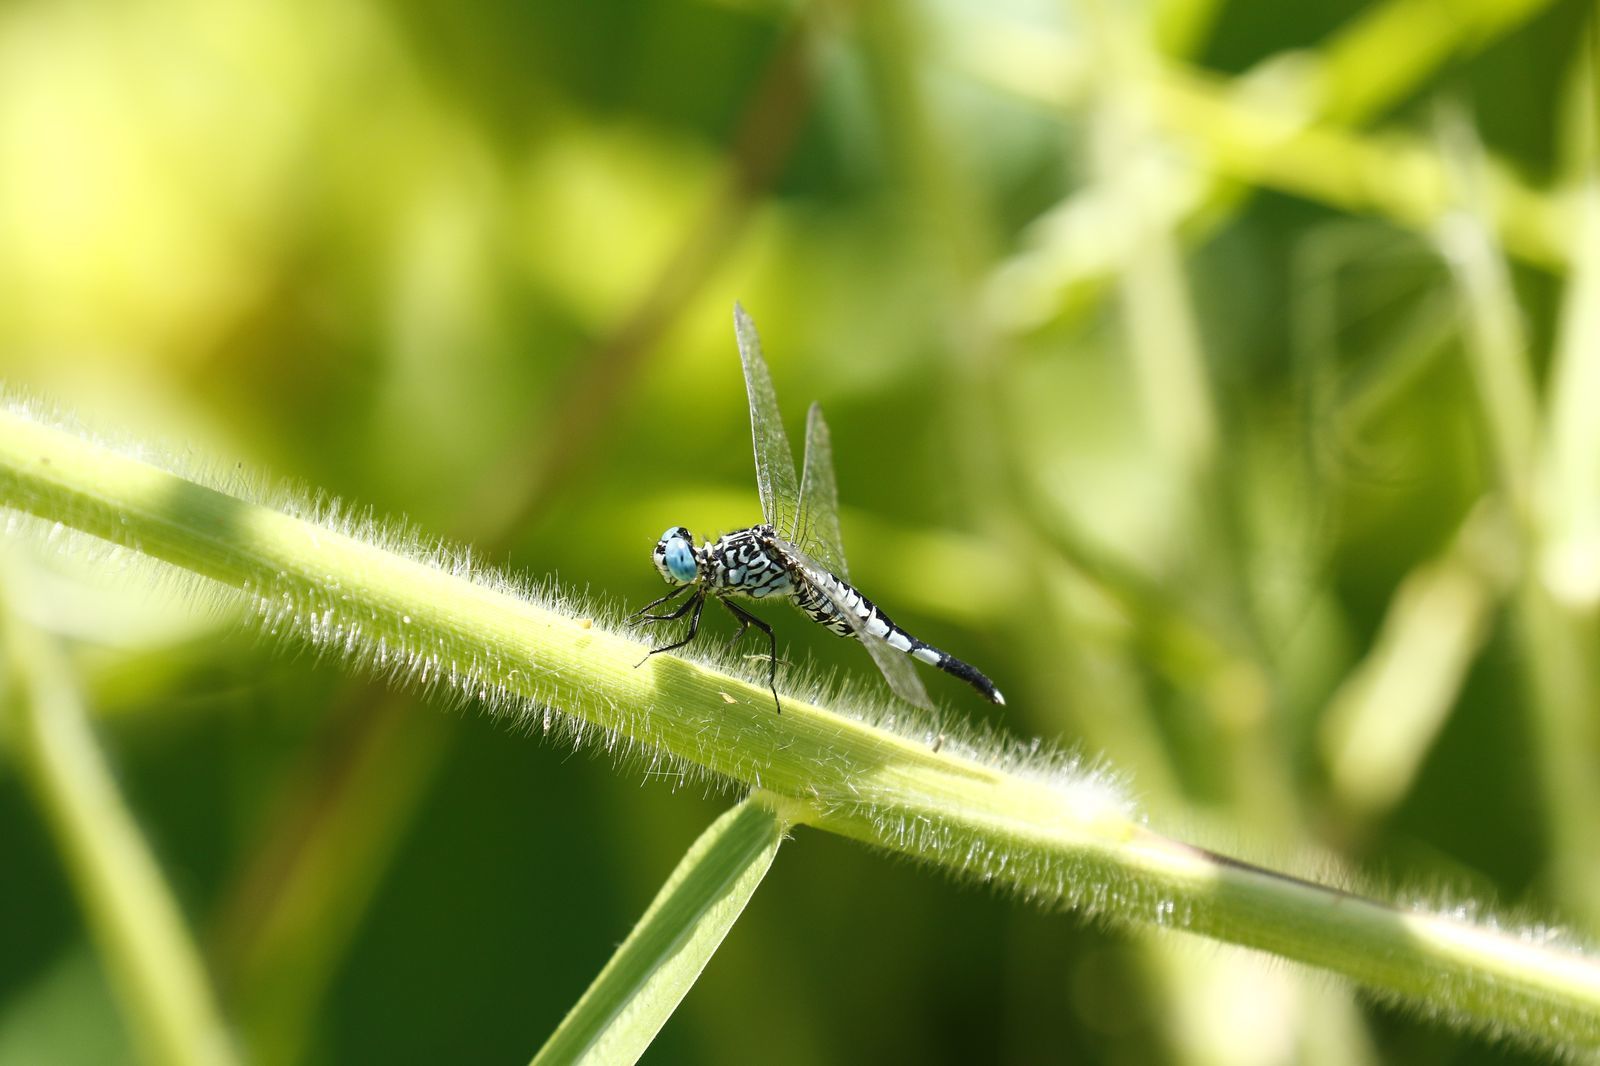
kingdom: Animalia
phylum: Arthropoda
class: Insecta
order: Odonata
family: Libellulidae
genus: Acisoma
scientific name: Acisoma panorpoides
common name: Asian pintail
